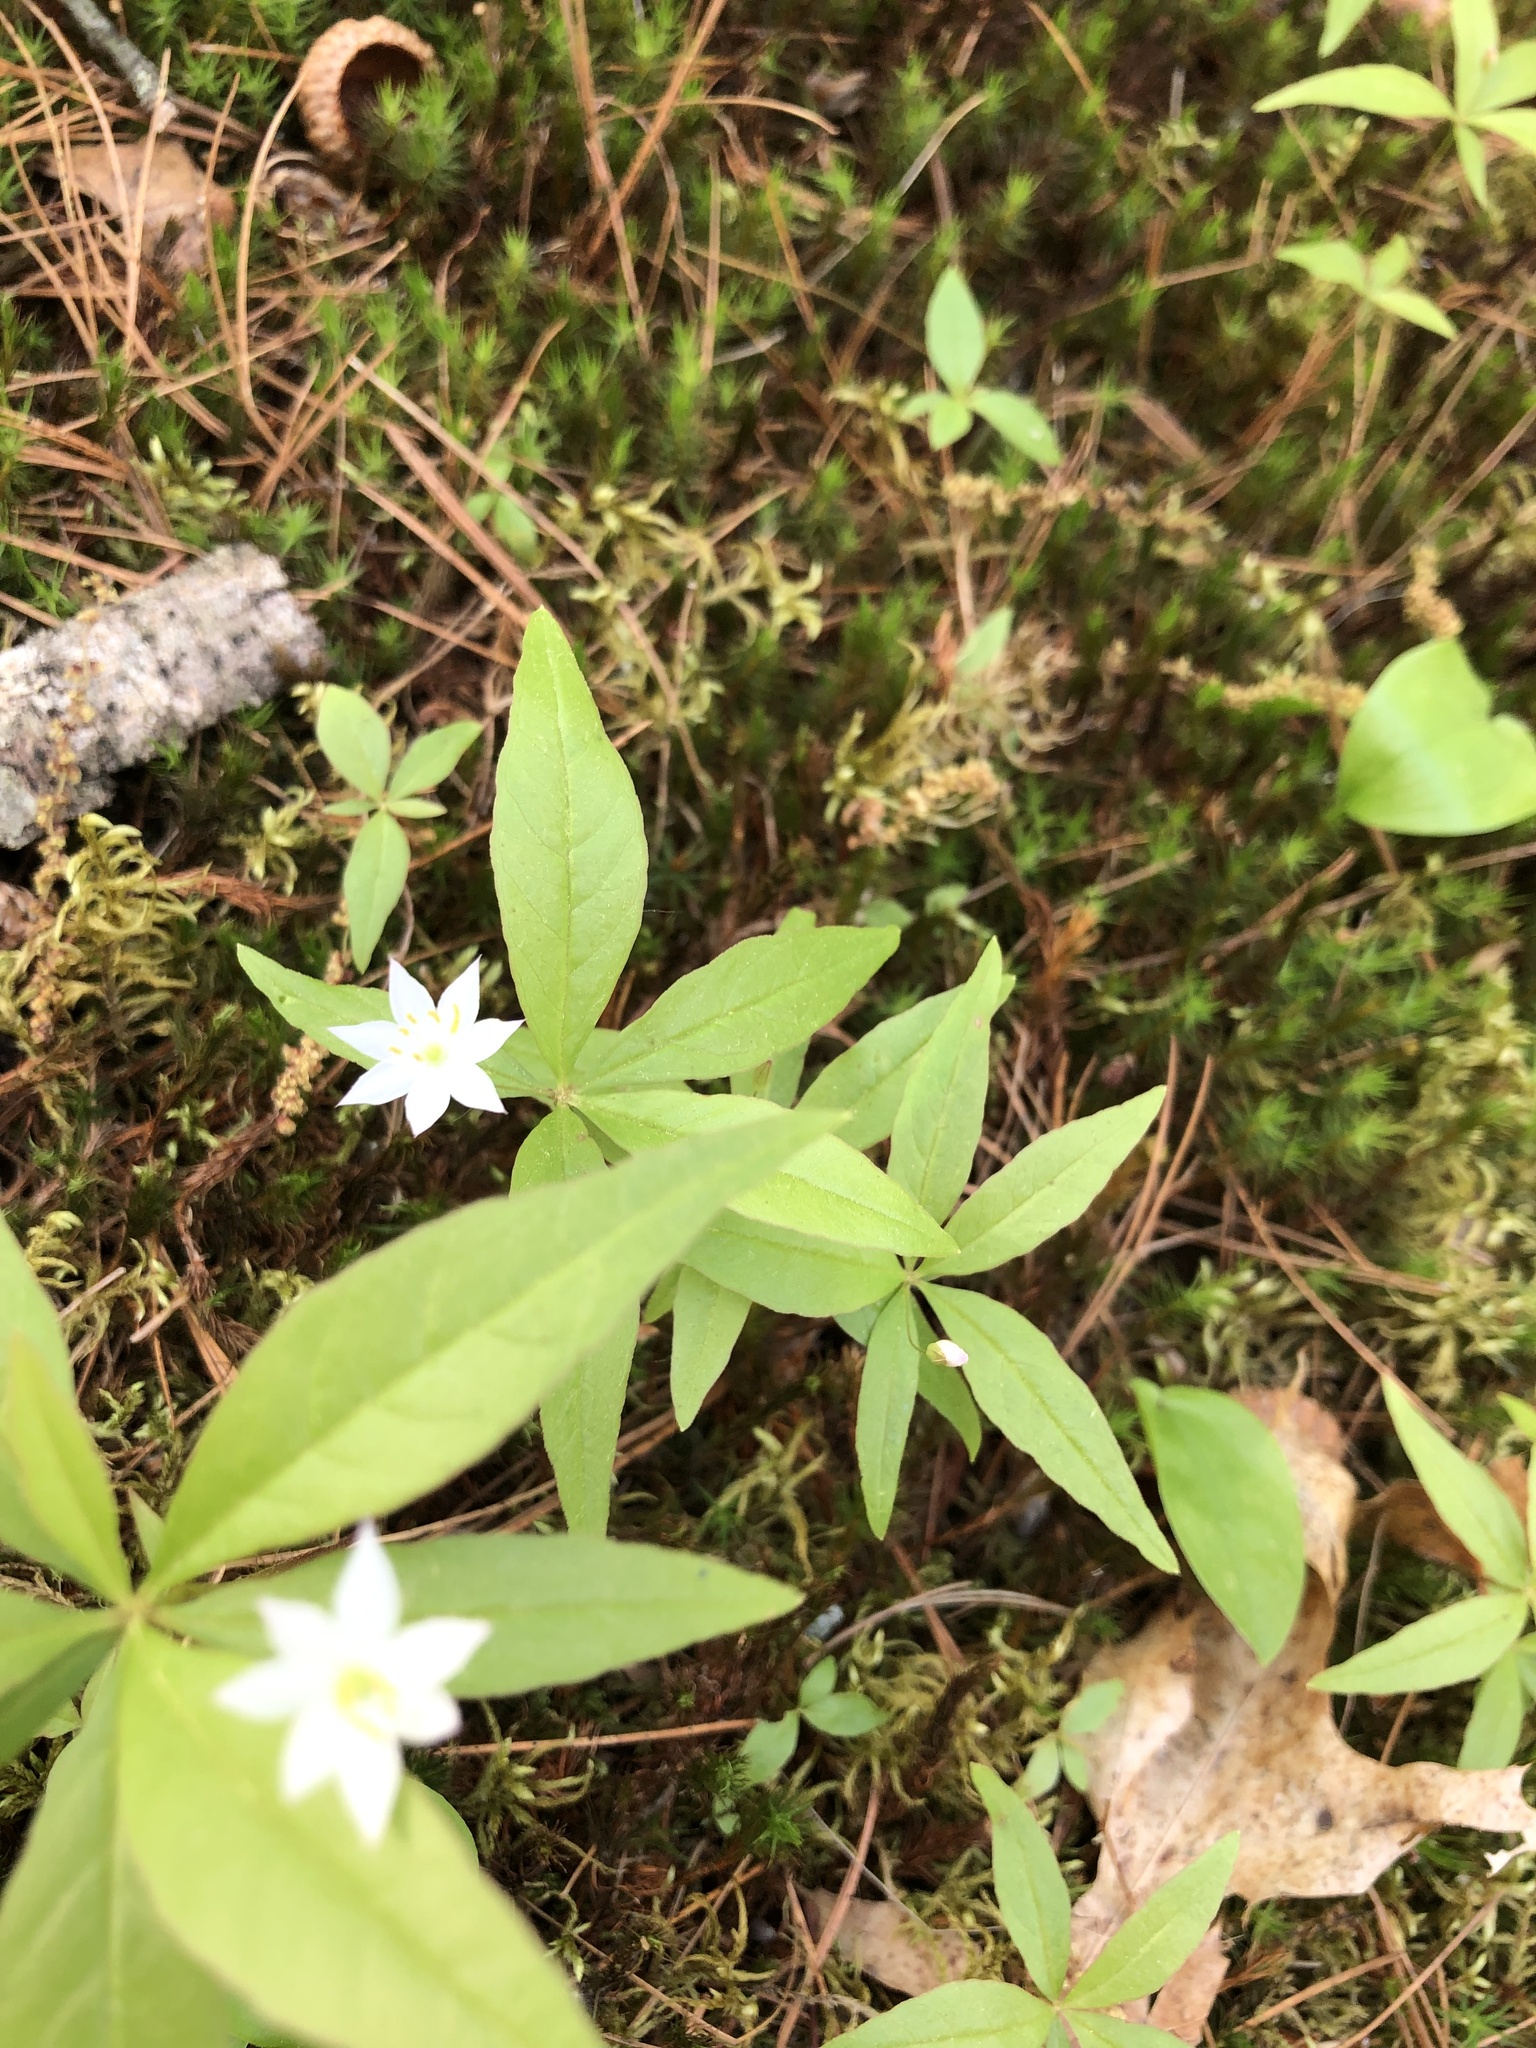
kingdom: Plantae
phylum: Tracheophyta
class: Magnoliopsida
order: Ericales
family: Primulaceae
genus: Lysimachia
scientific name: Lysimachia borealis
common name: American starflower
